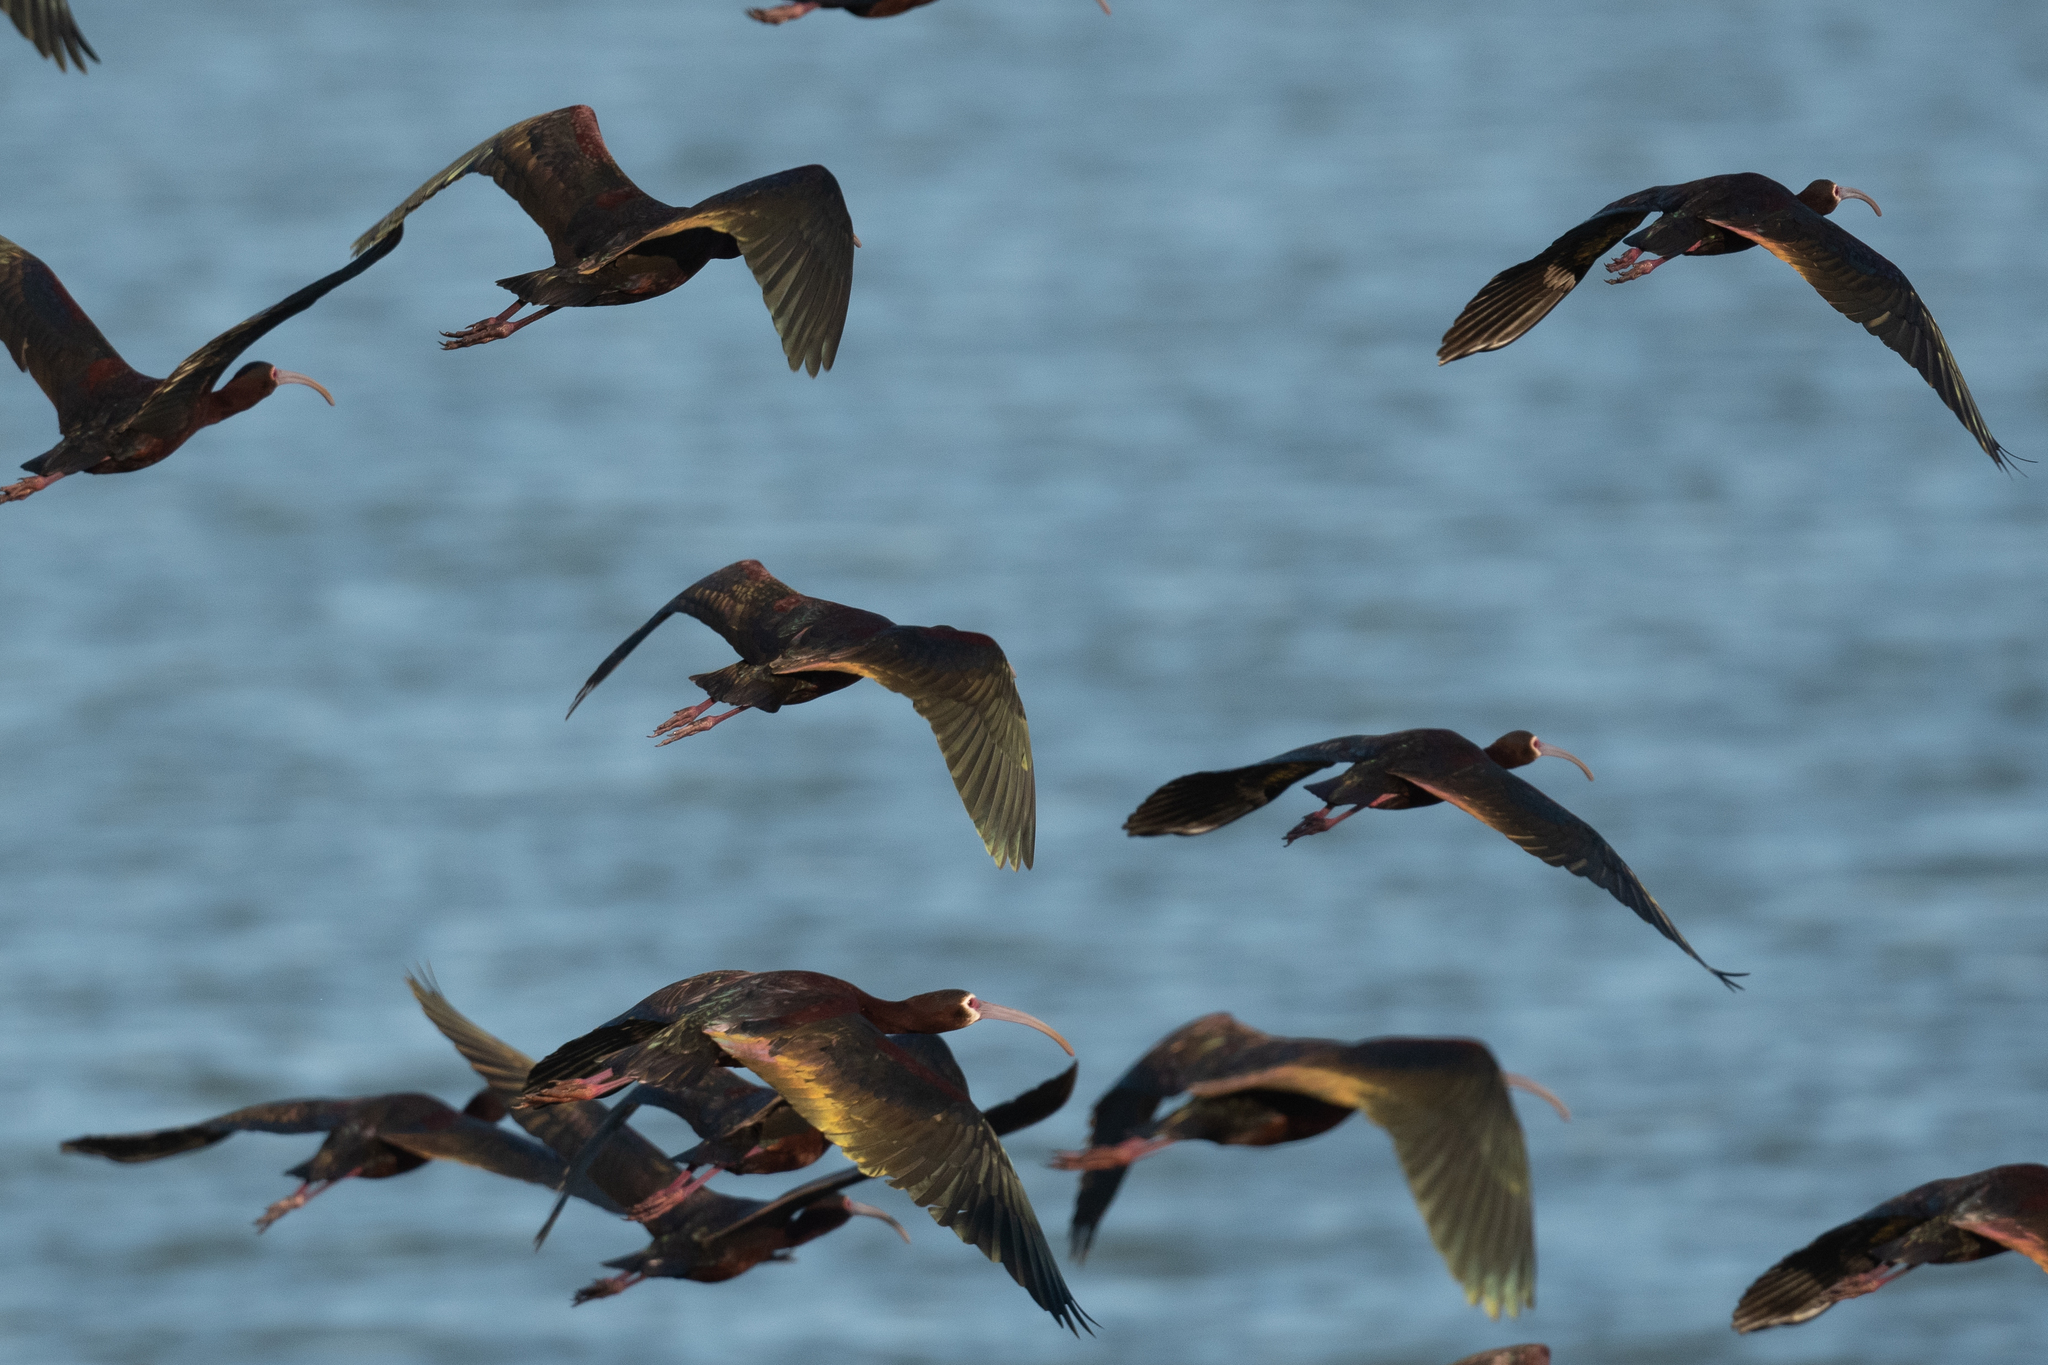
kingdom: Animalia
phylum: Chordata
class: Aves
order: Pelecaniformes
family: Threskiornithidae
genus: Plegadis
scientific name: Plegadis chihi
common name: White-faced ibis
